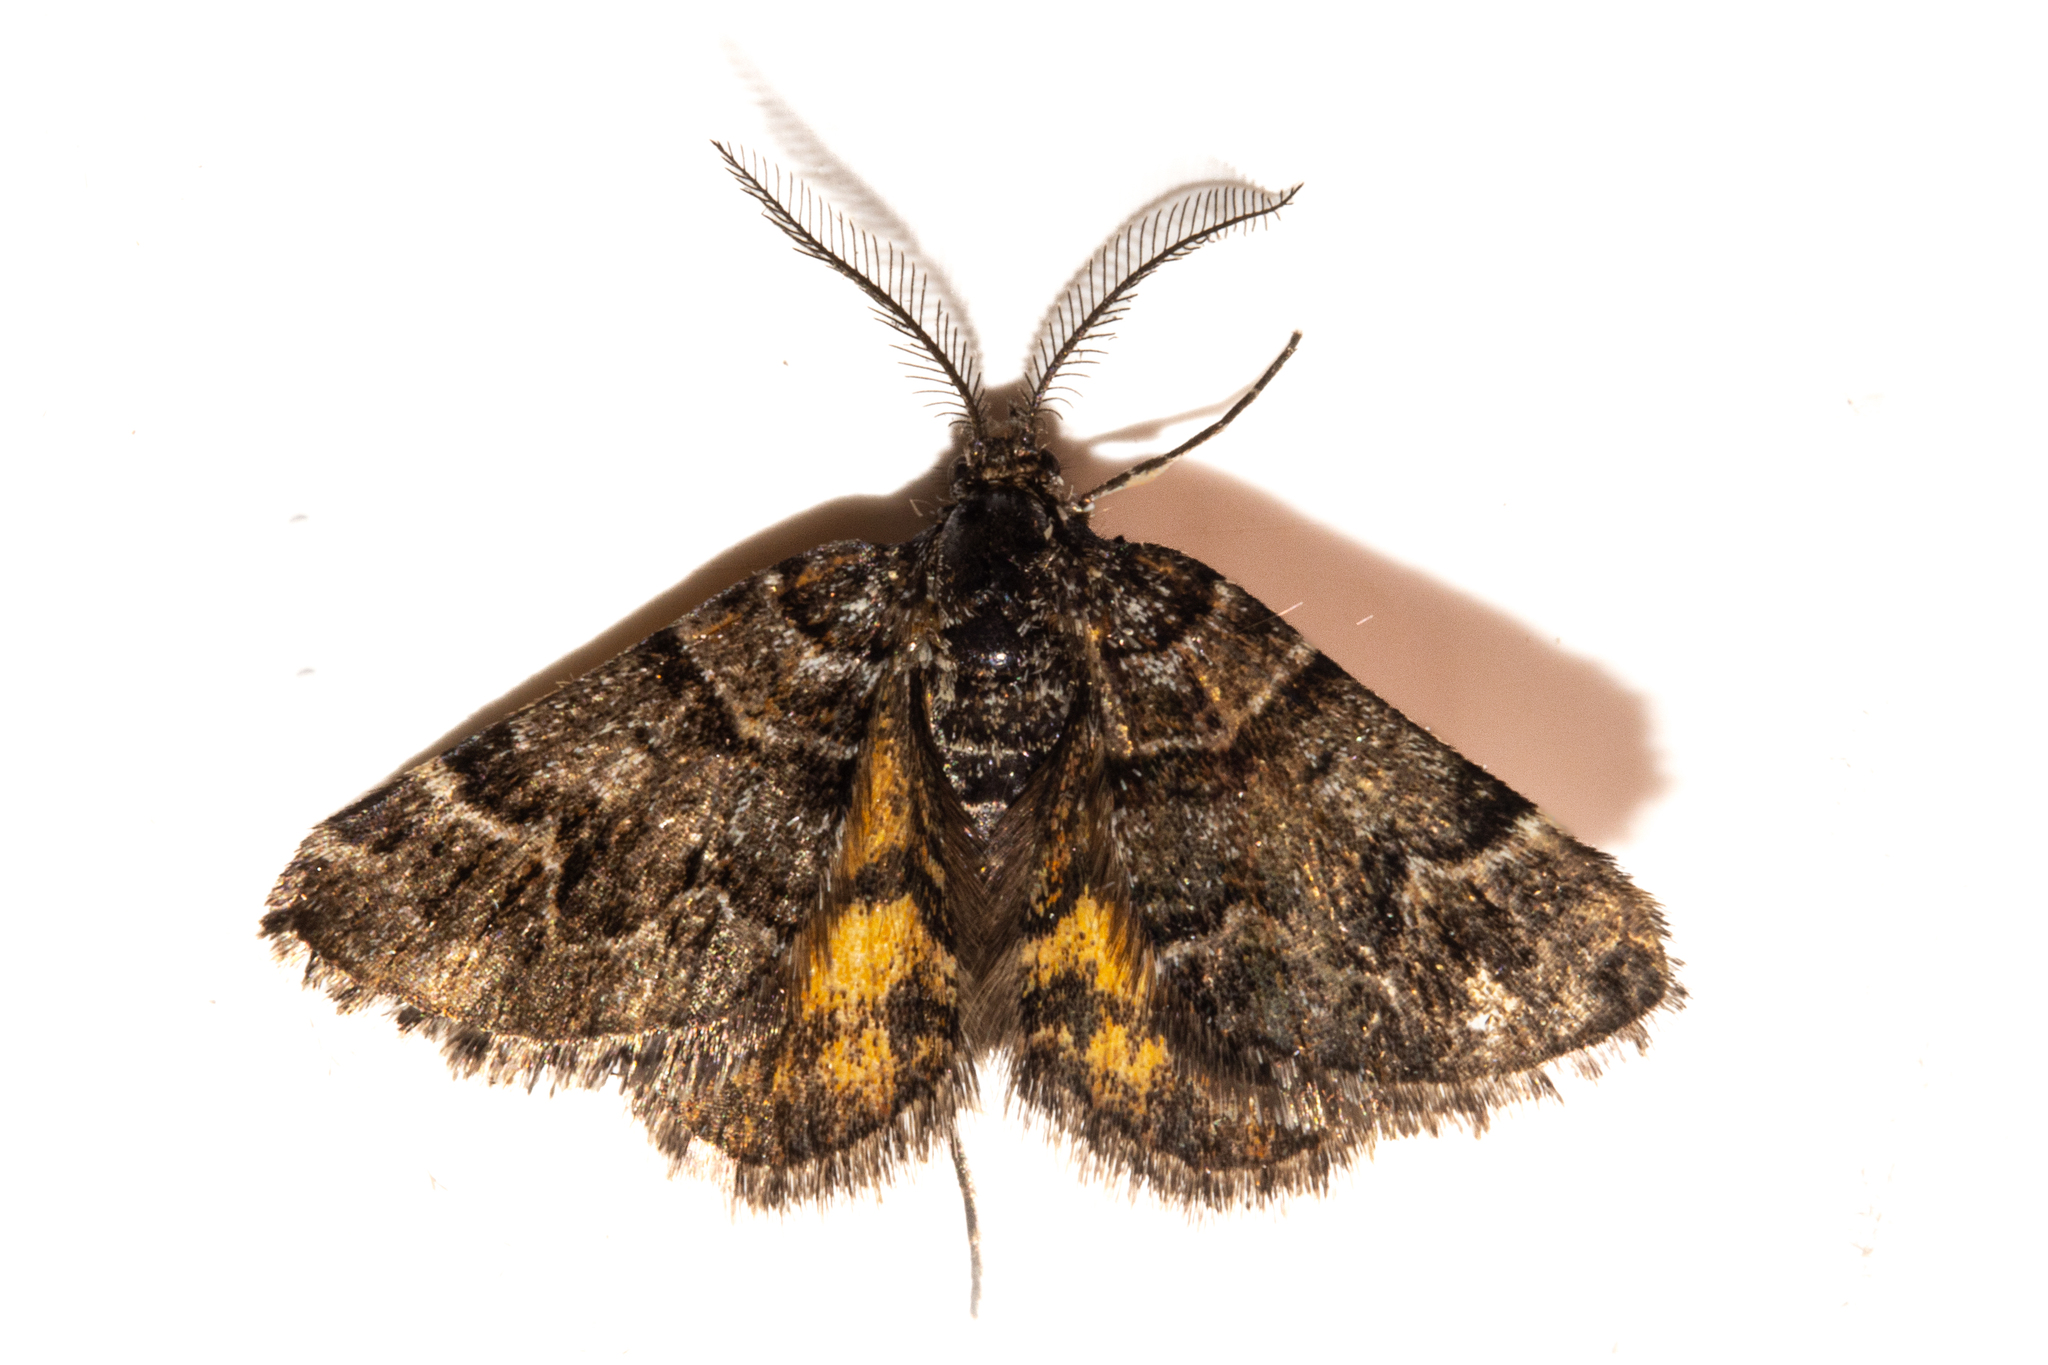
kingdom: Animalia
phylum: Arthropoda
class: Insecta
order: Lepidoptera
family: Geometridae
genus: Arctesthes
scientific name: Arctesthes catapyrrha
